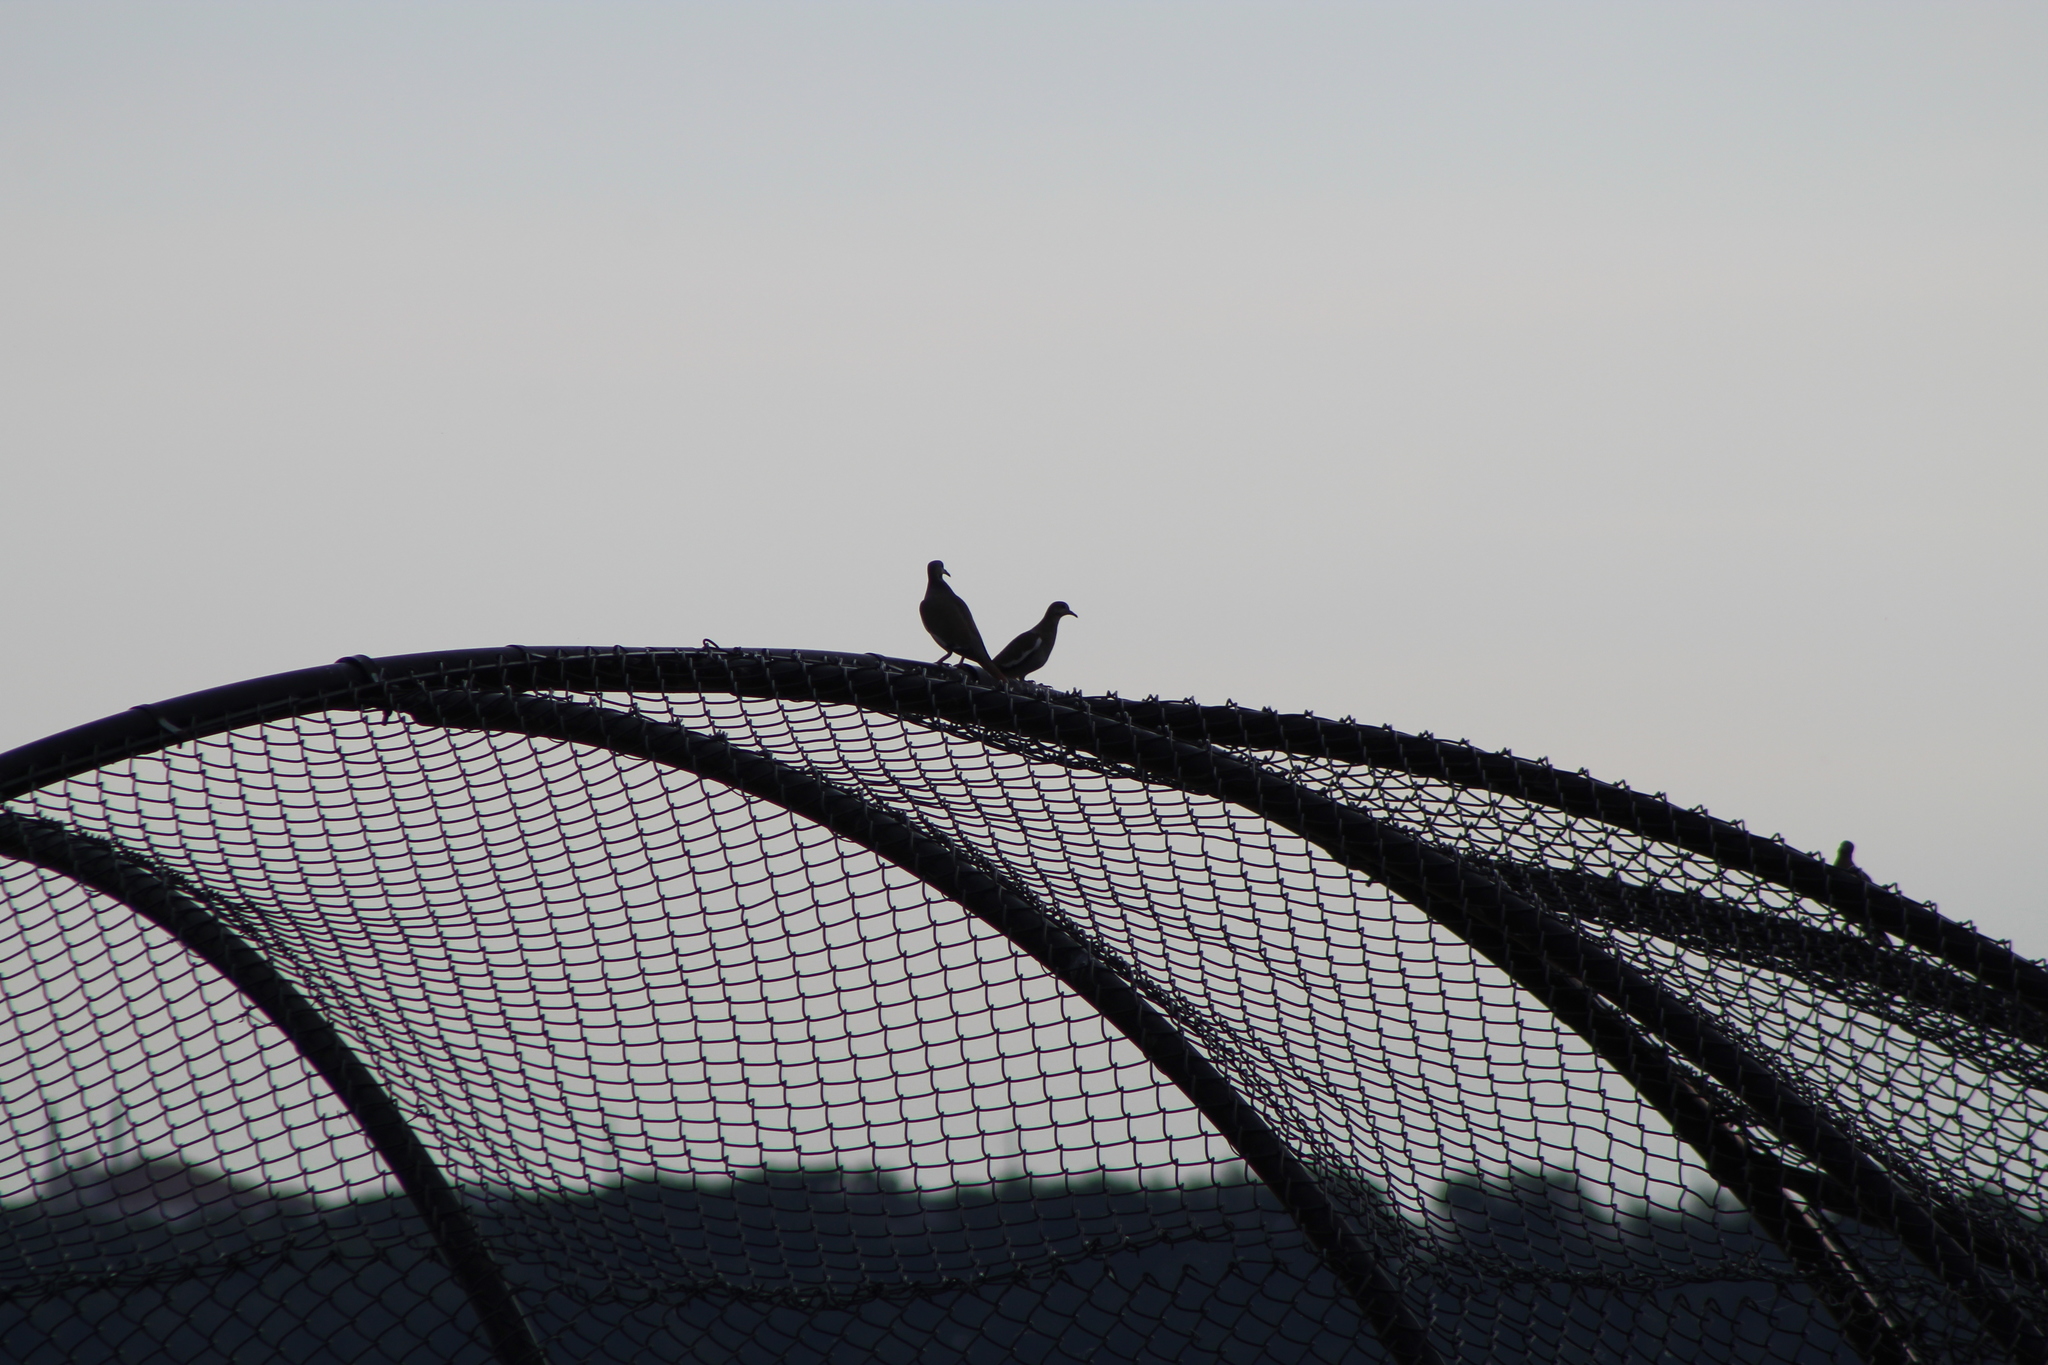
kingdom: Animalia
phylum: Chordata
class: Aves
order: Columbiformes
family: Columbidae
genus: Zenaida
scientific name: Zenaida asiatica
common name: White-winged dove
